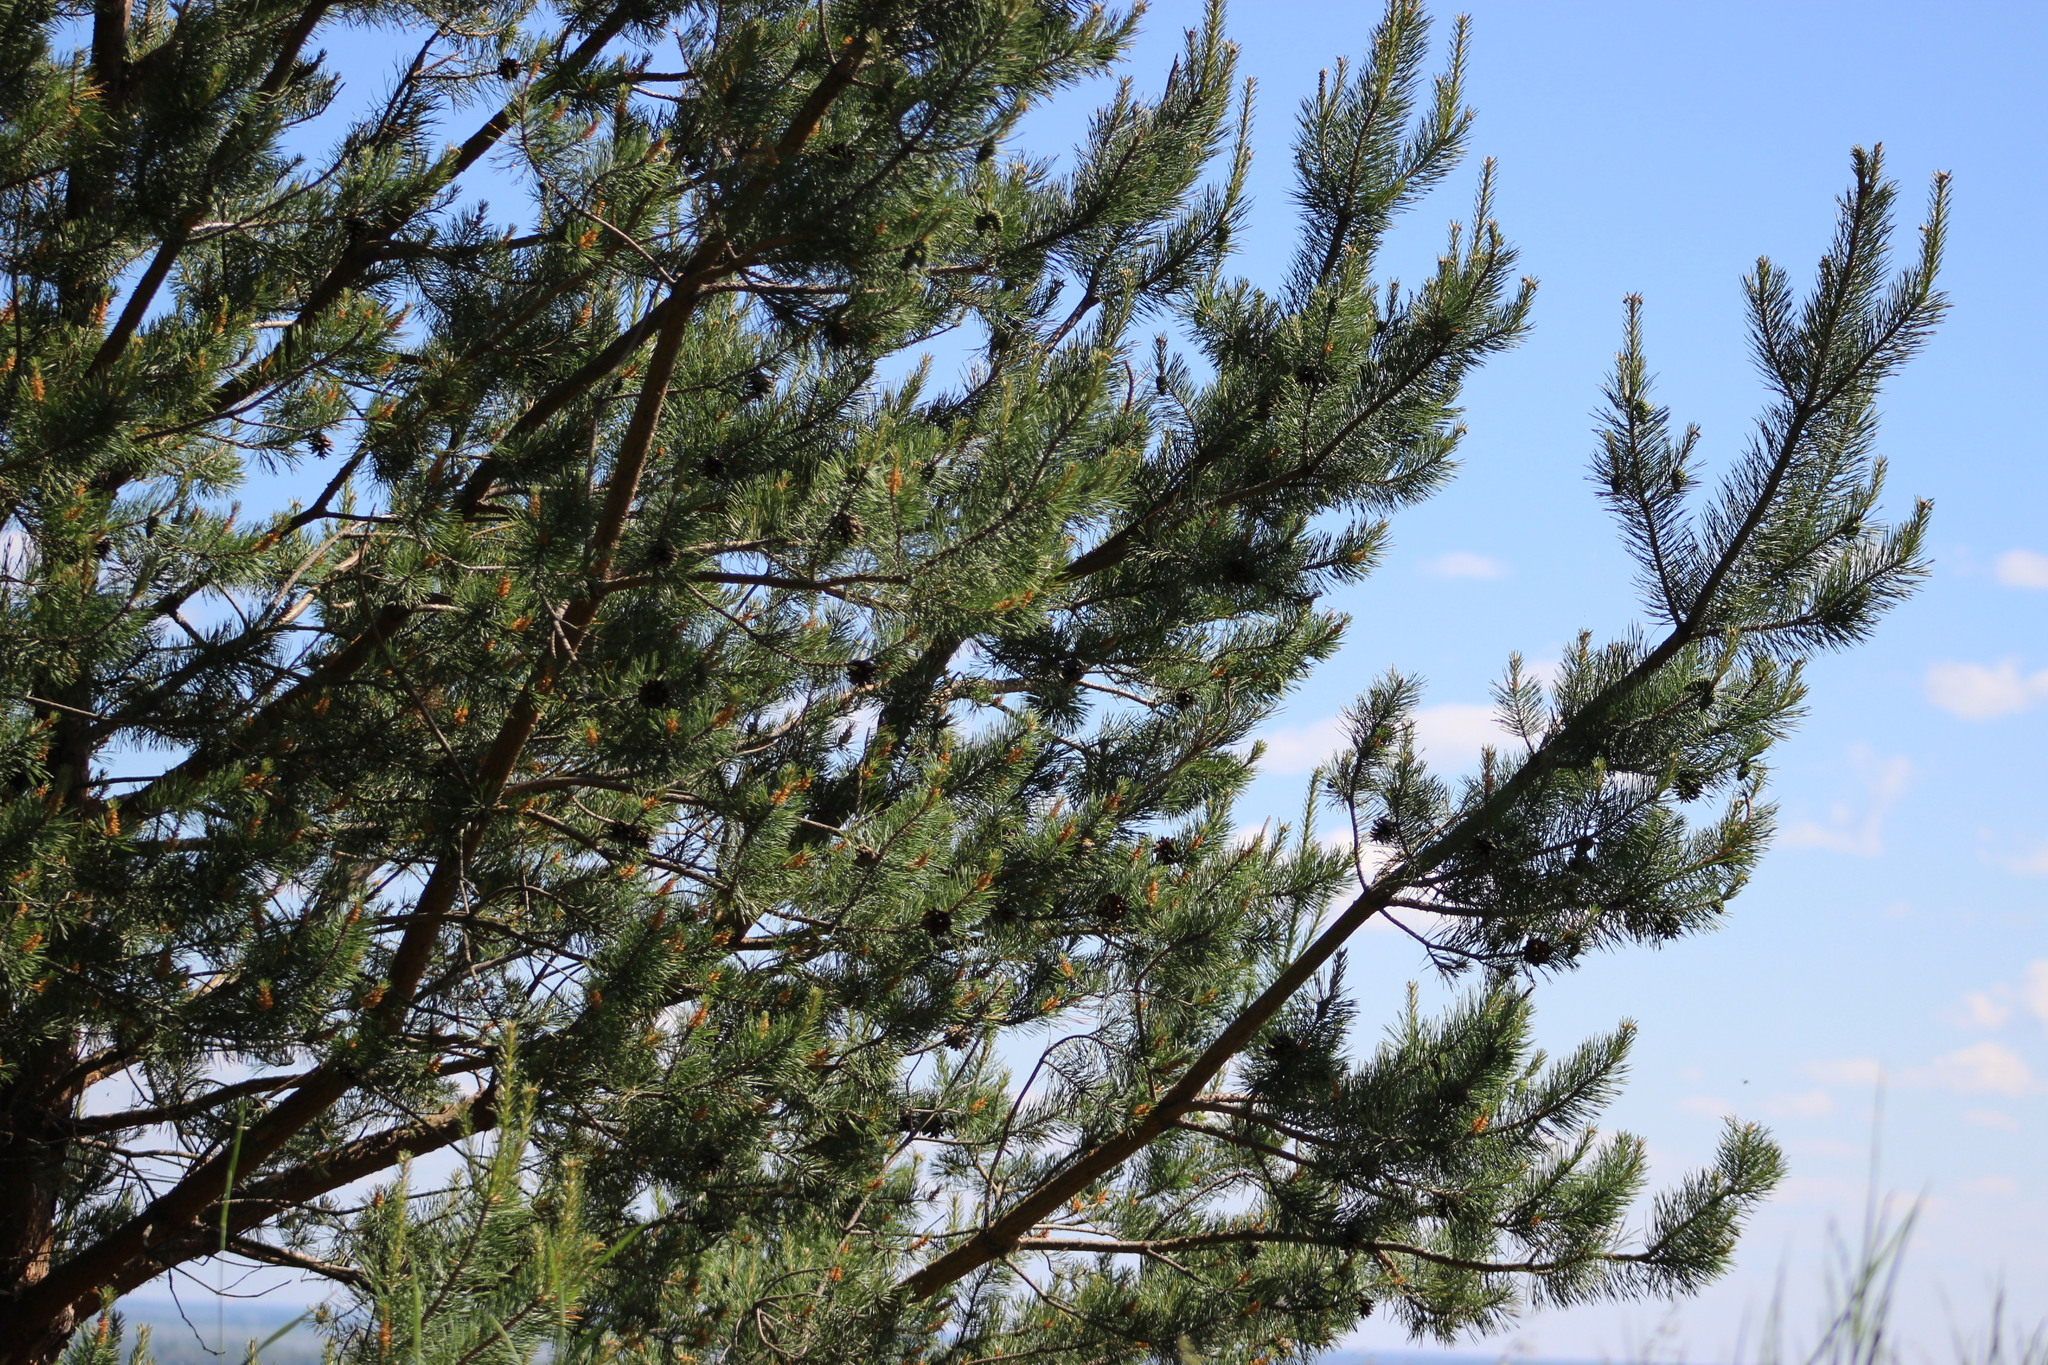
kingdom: Plantae
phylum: Tracheophyta
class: Pinopsida
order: Pinales
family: Pinaceae
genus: Pinus
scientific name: Pinus sylvestris
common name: Scots pine
